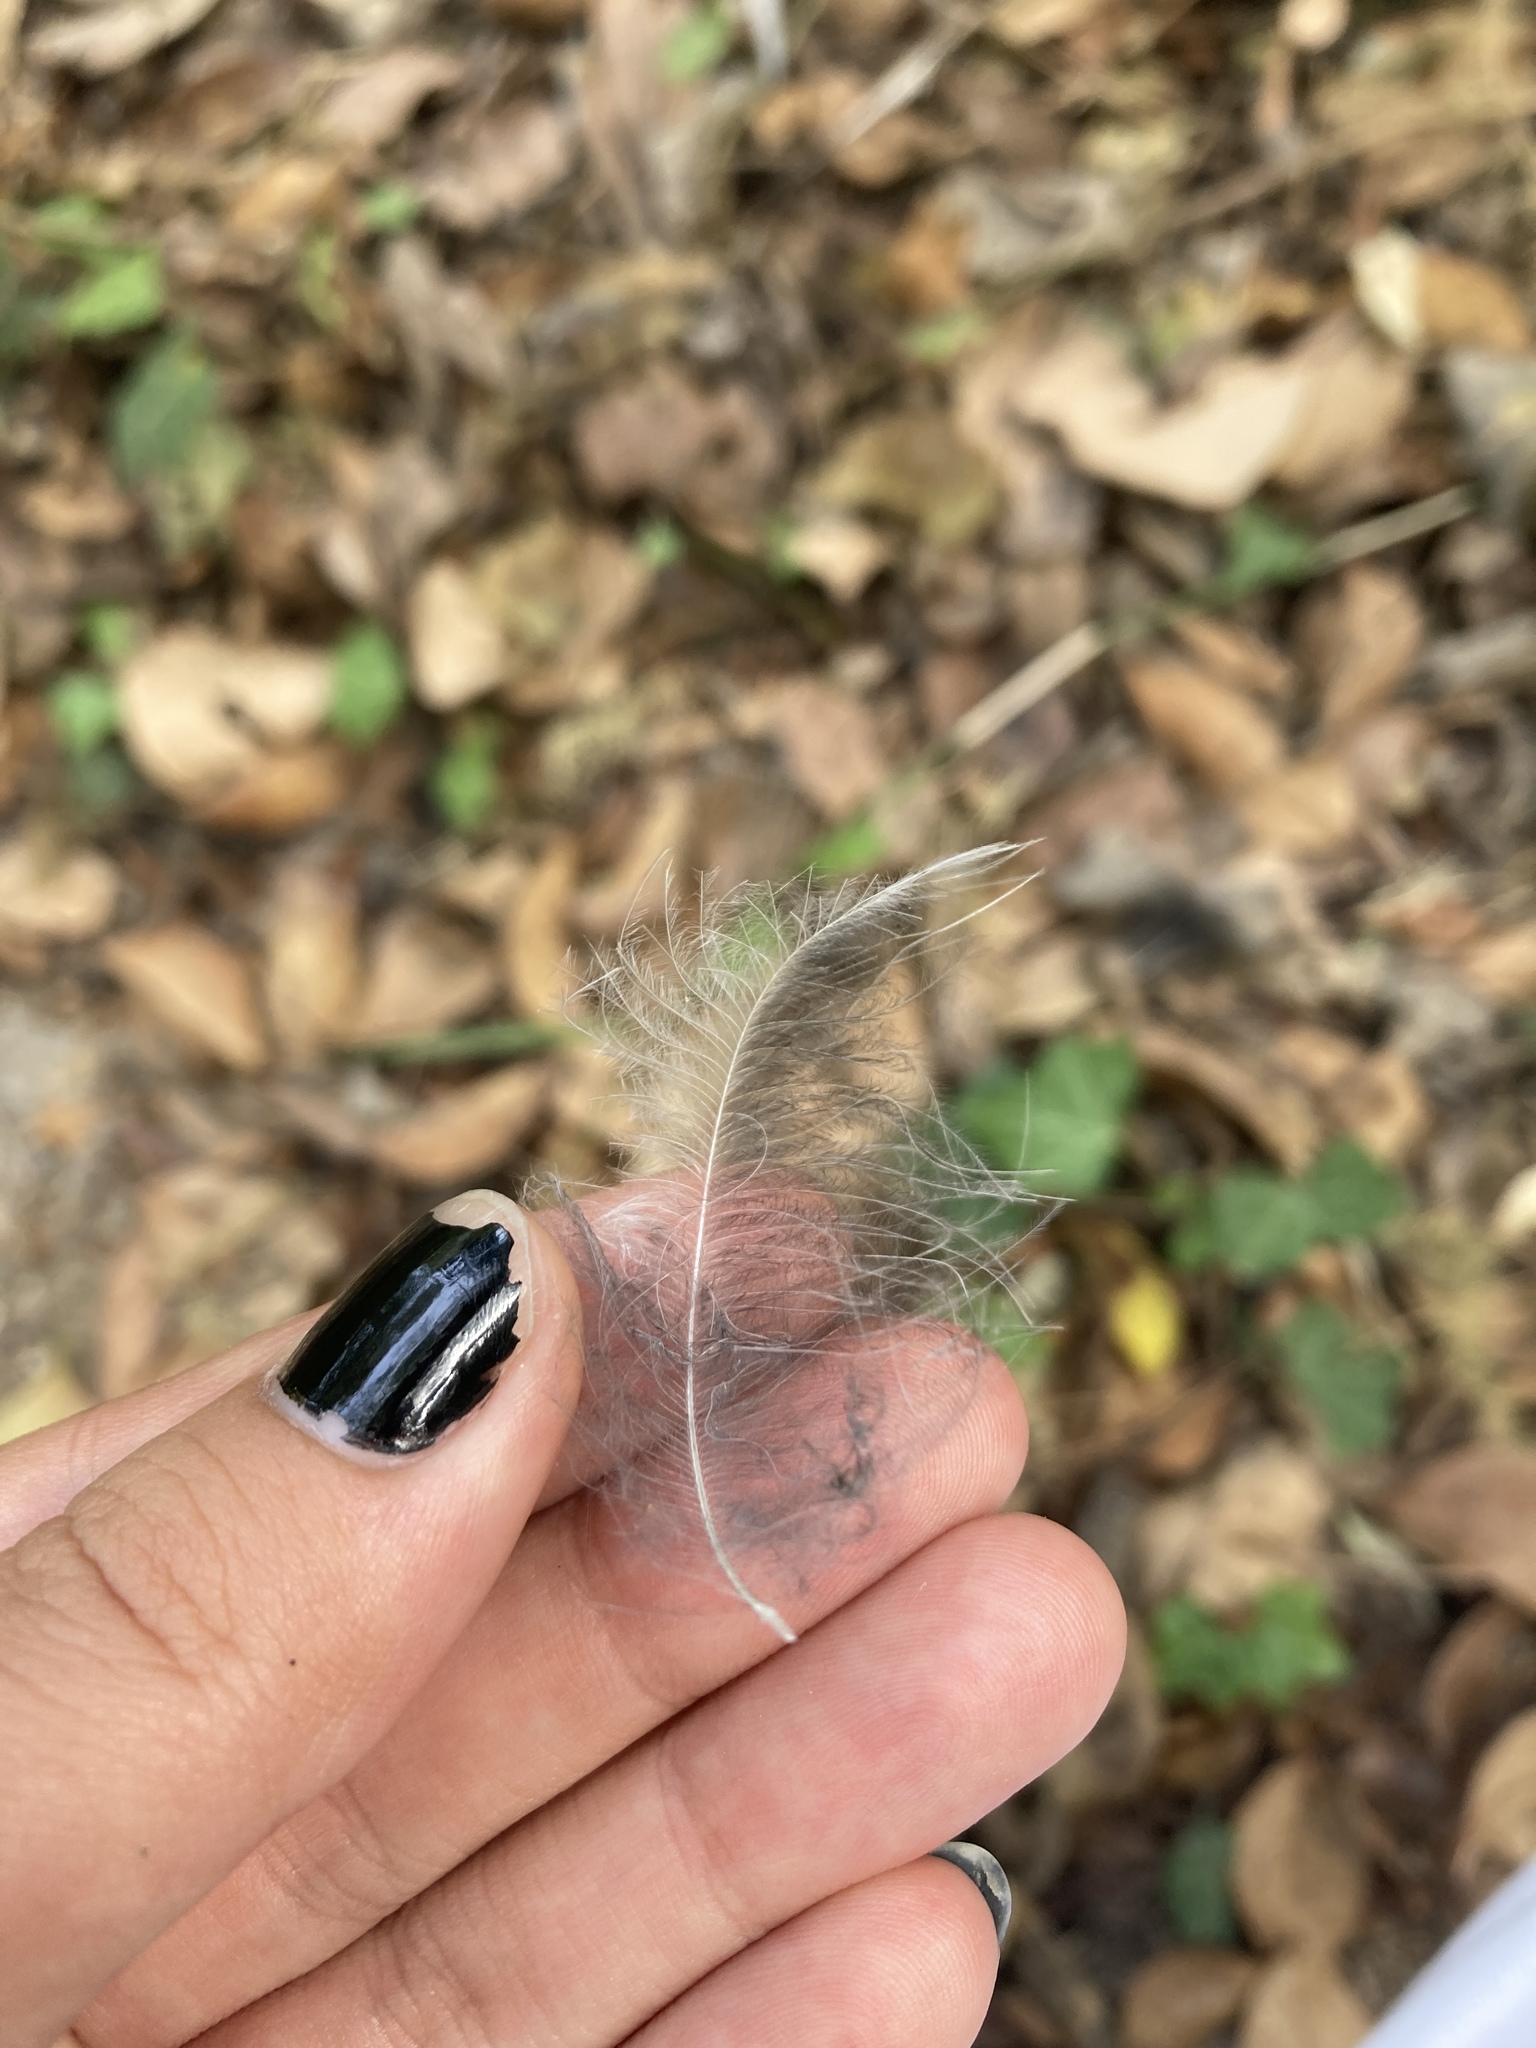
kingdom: Animalia
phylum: Chordata
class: Aves
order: Passeriformes
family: Corvidae
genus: Pica
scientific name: Pica pica
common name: Eurasian magpie
